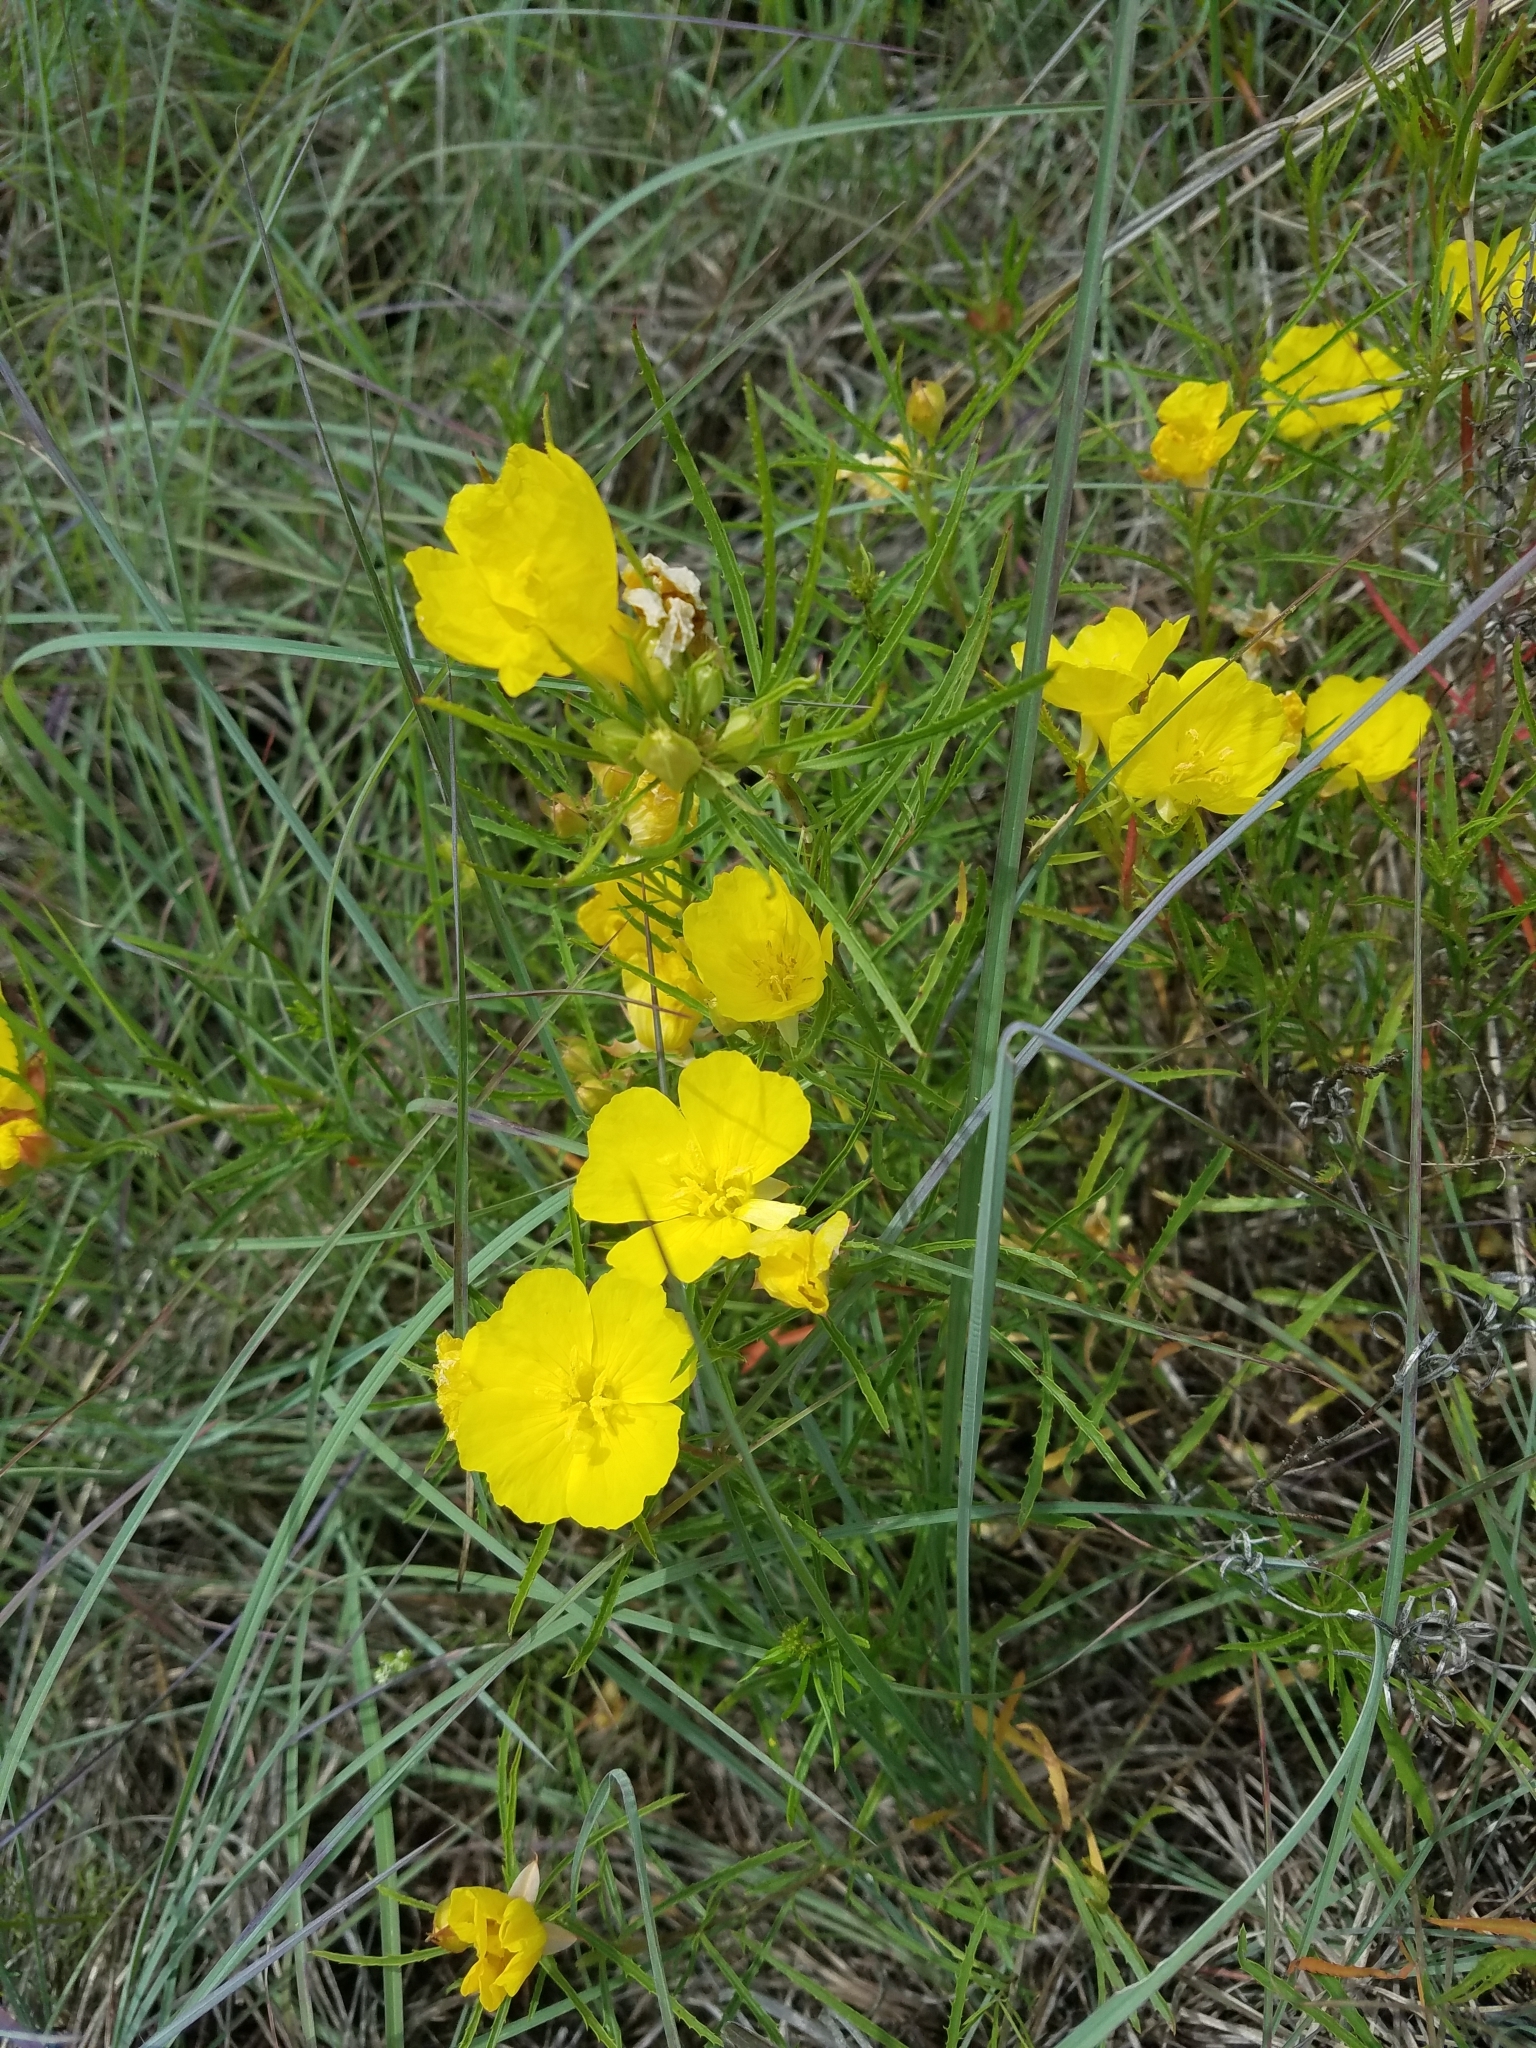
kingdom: Plantae
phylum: Tracheophyta
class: Magnoliopsida
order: Myrtales
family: Onagraceae
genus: Oenothera
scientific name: Oenothera
